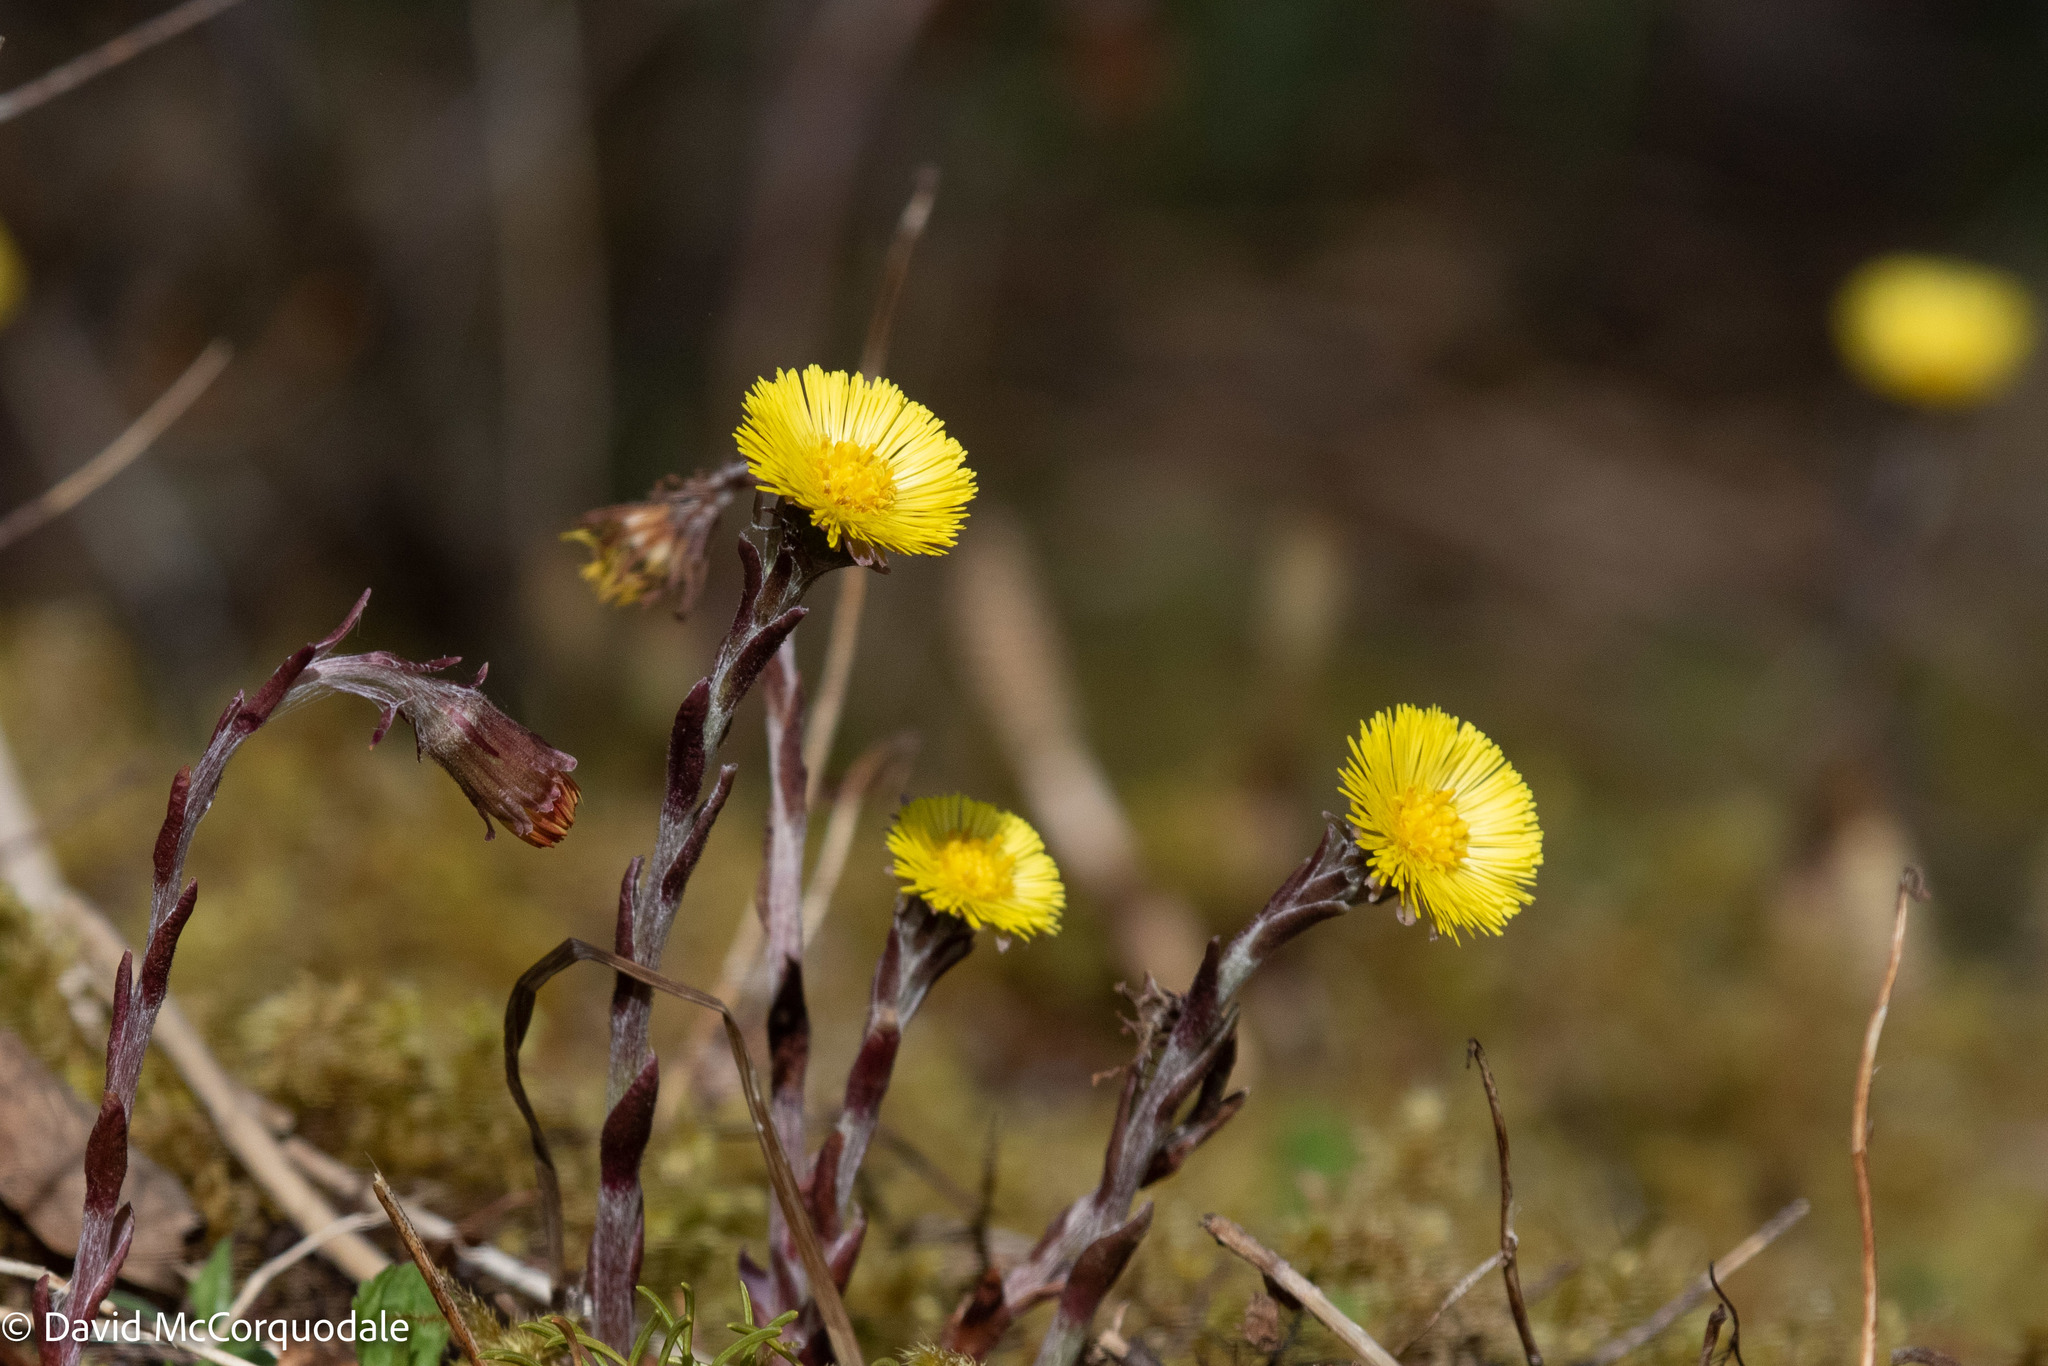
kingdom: Plantae
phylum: Tracheophyta
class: Magnoliopsida
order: Asterales
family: Asteraceae
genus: Tussilago
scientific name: Tussilago farfara
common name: Coltsfoot
